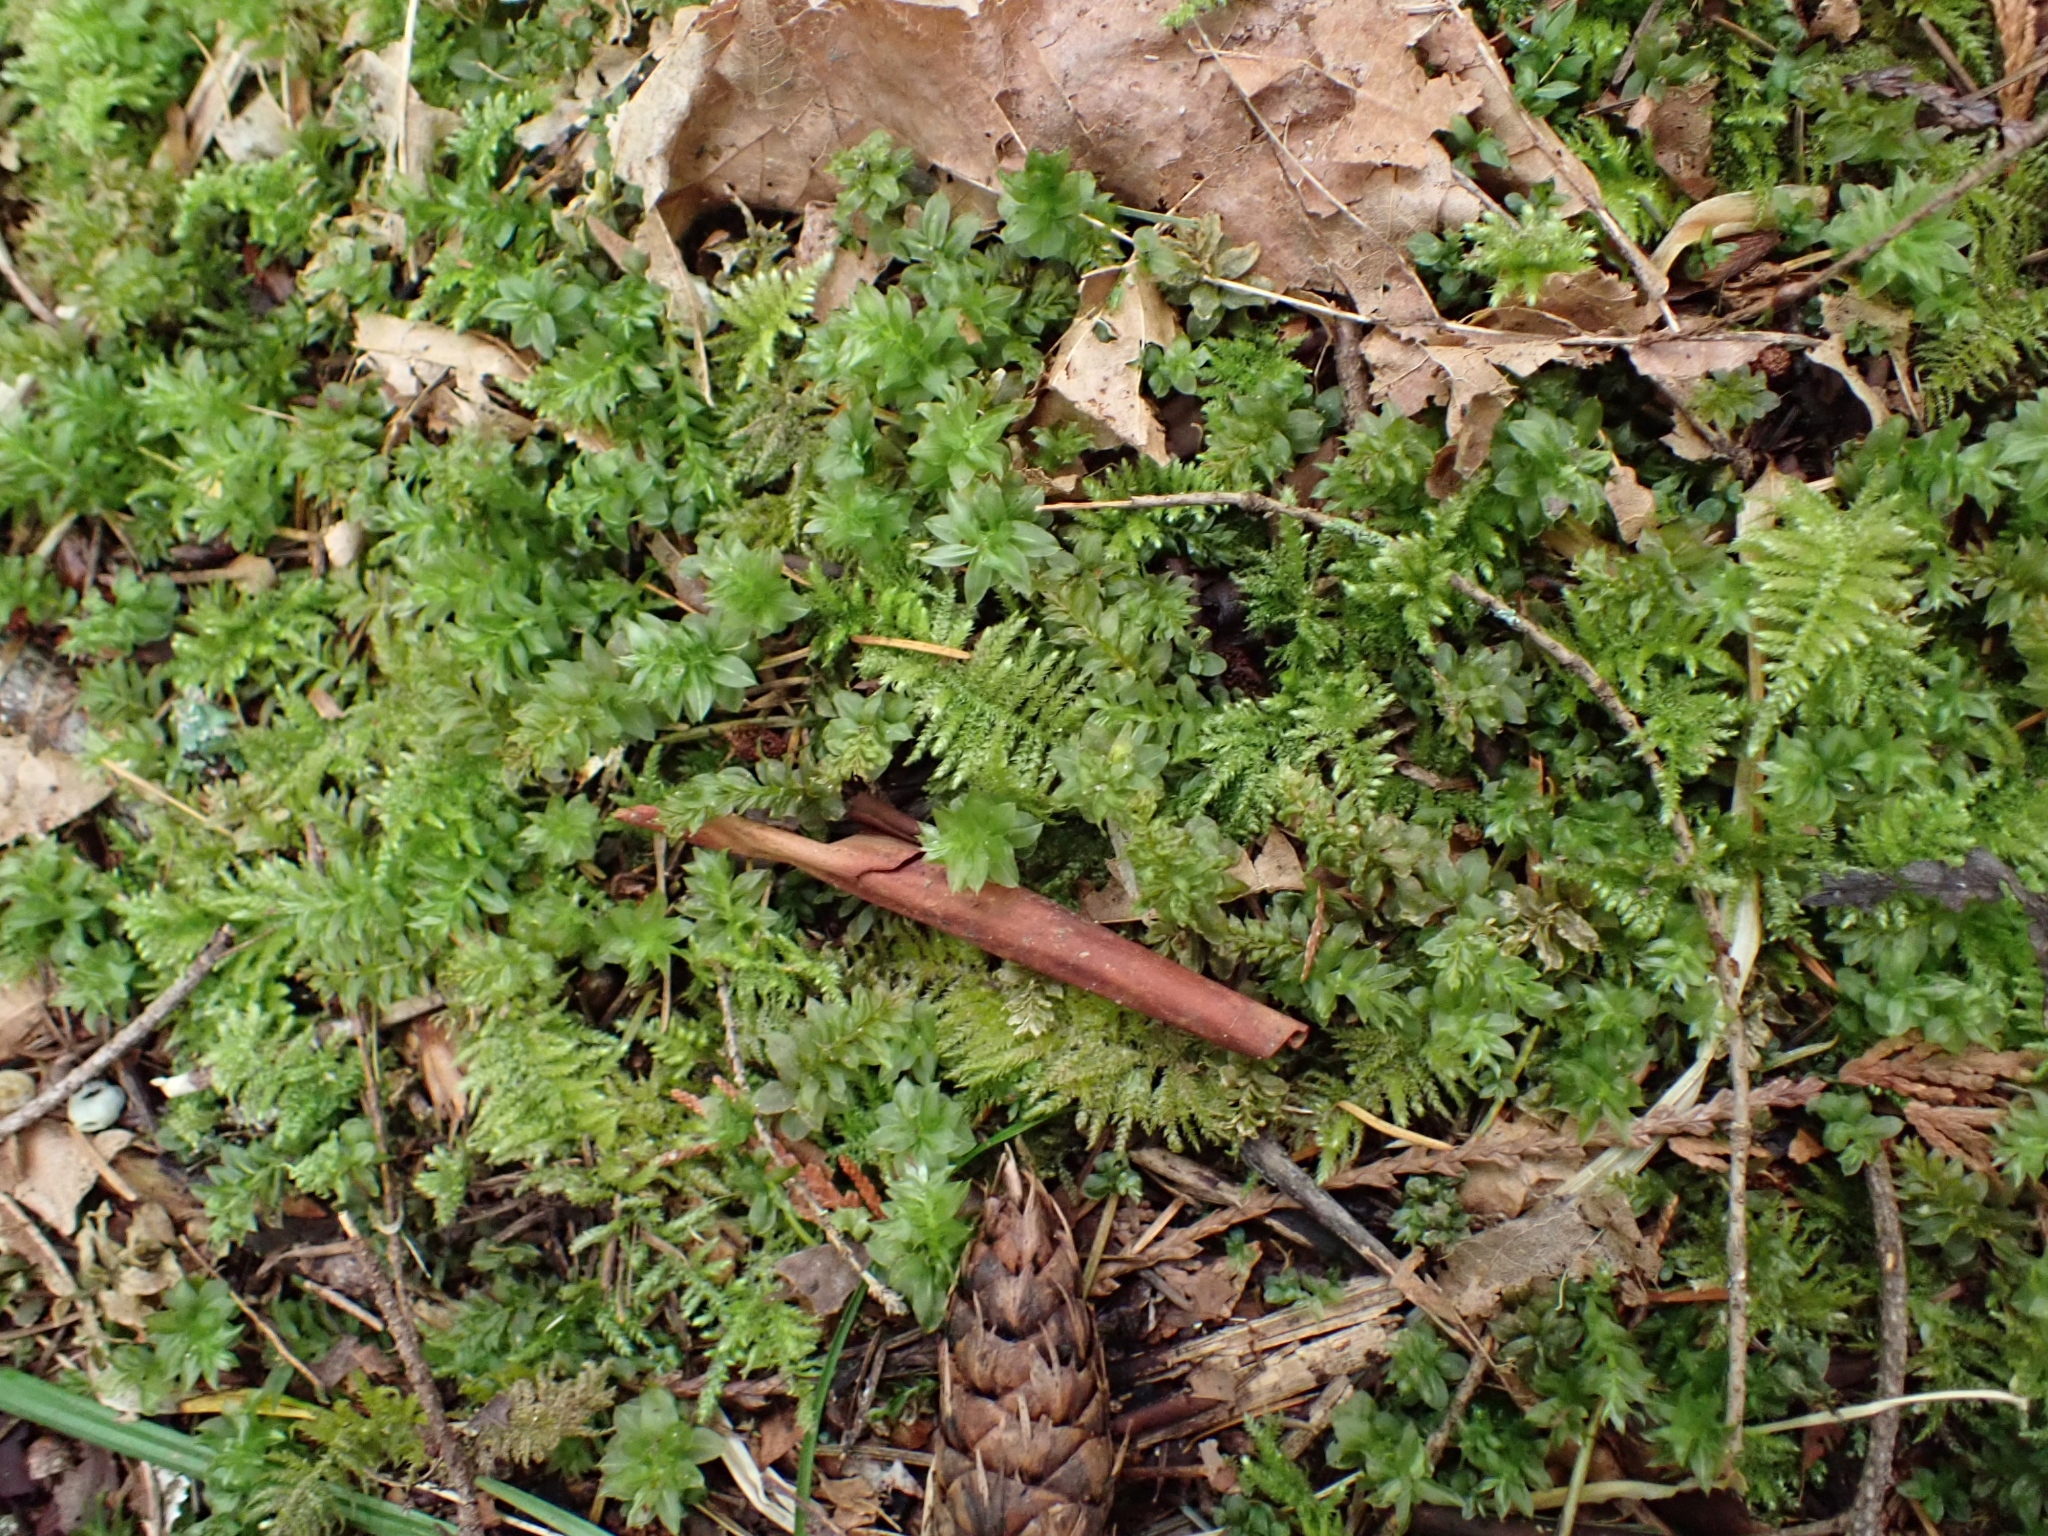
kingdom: Plantae
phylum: Bryophyta
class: Bryopsida
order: Hypnales
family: Brachytheciaceae
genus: Kindbergia
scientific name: Kindbergia oregana
